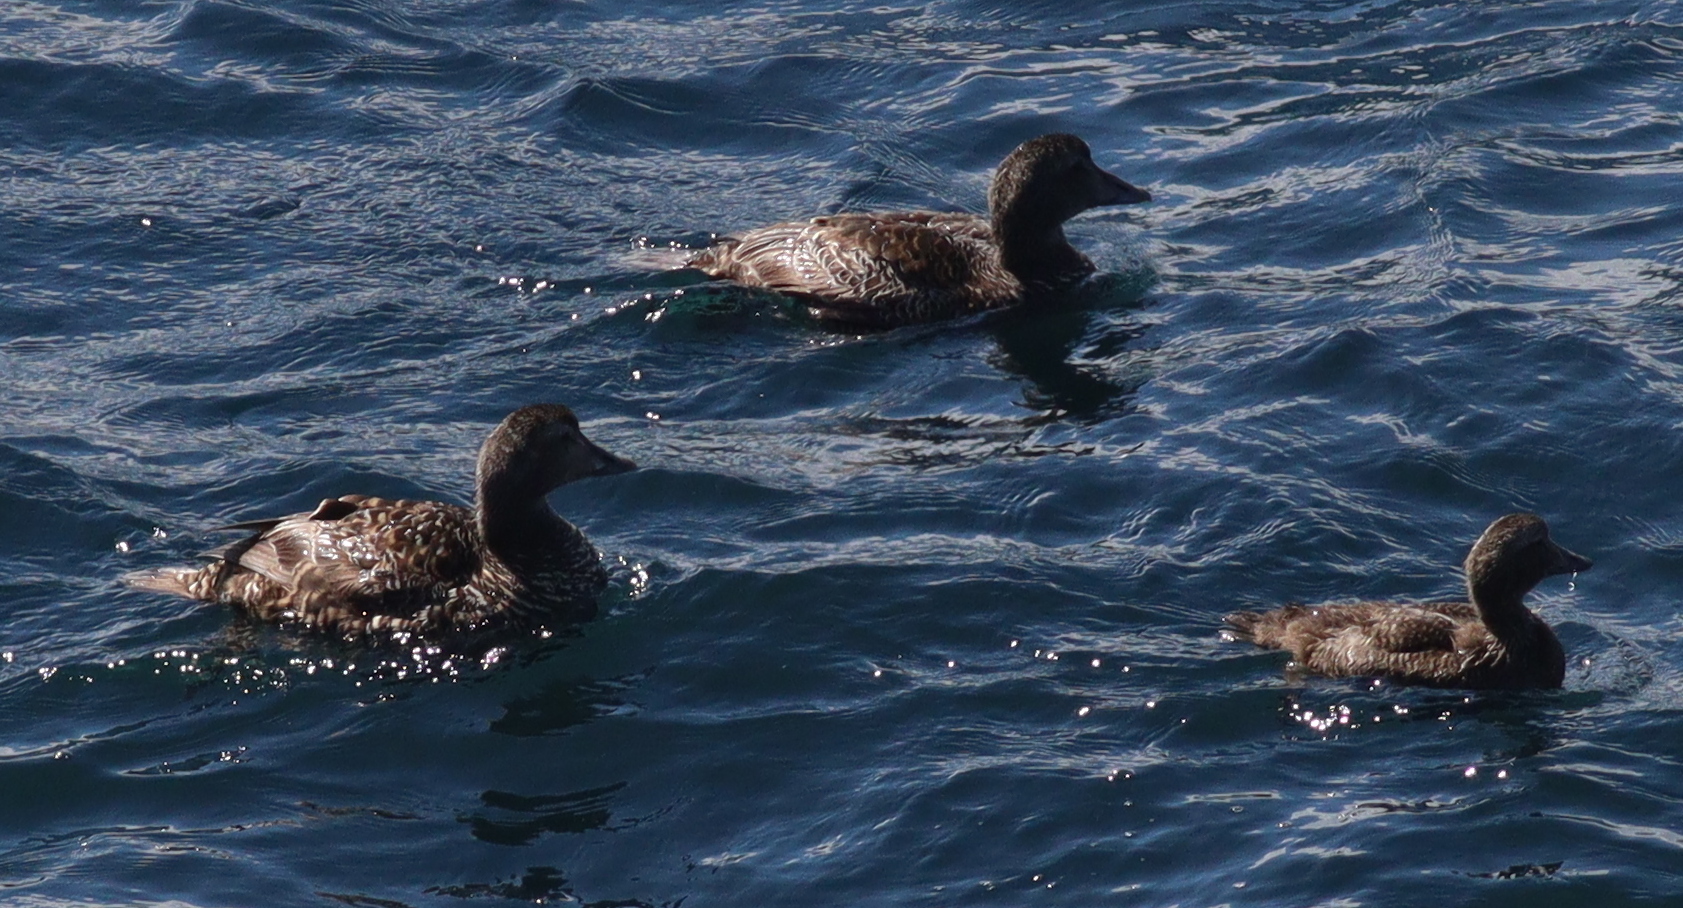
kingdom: Animalia
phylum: Chordata
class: Aves
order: Anseriformes
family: Anatidae
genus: Somateria
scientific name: Somateria mollissima
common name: Common eider
